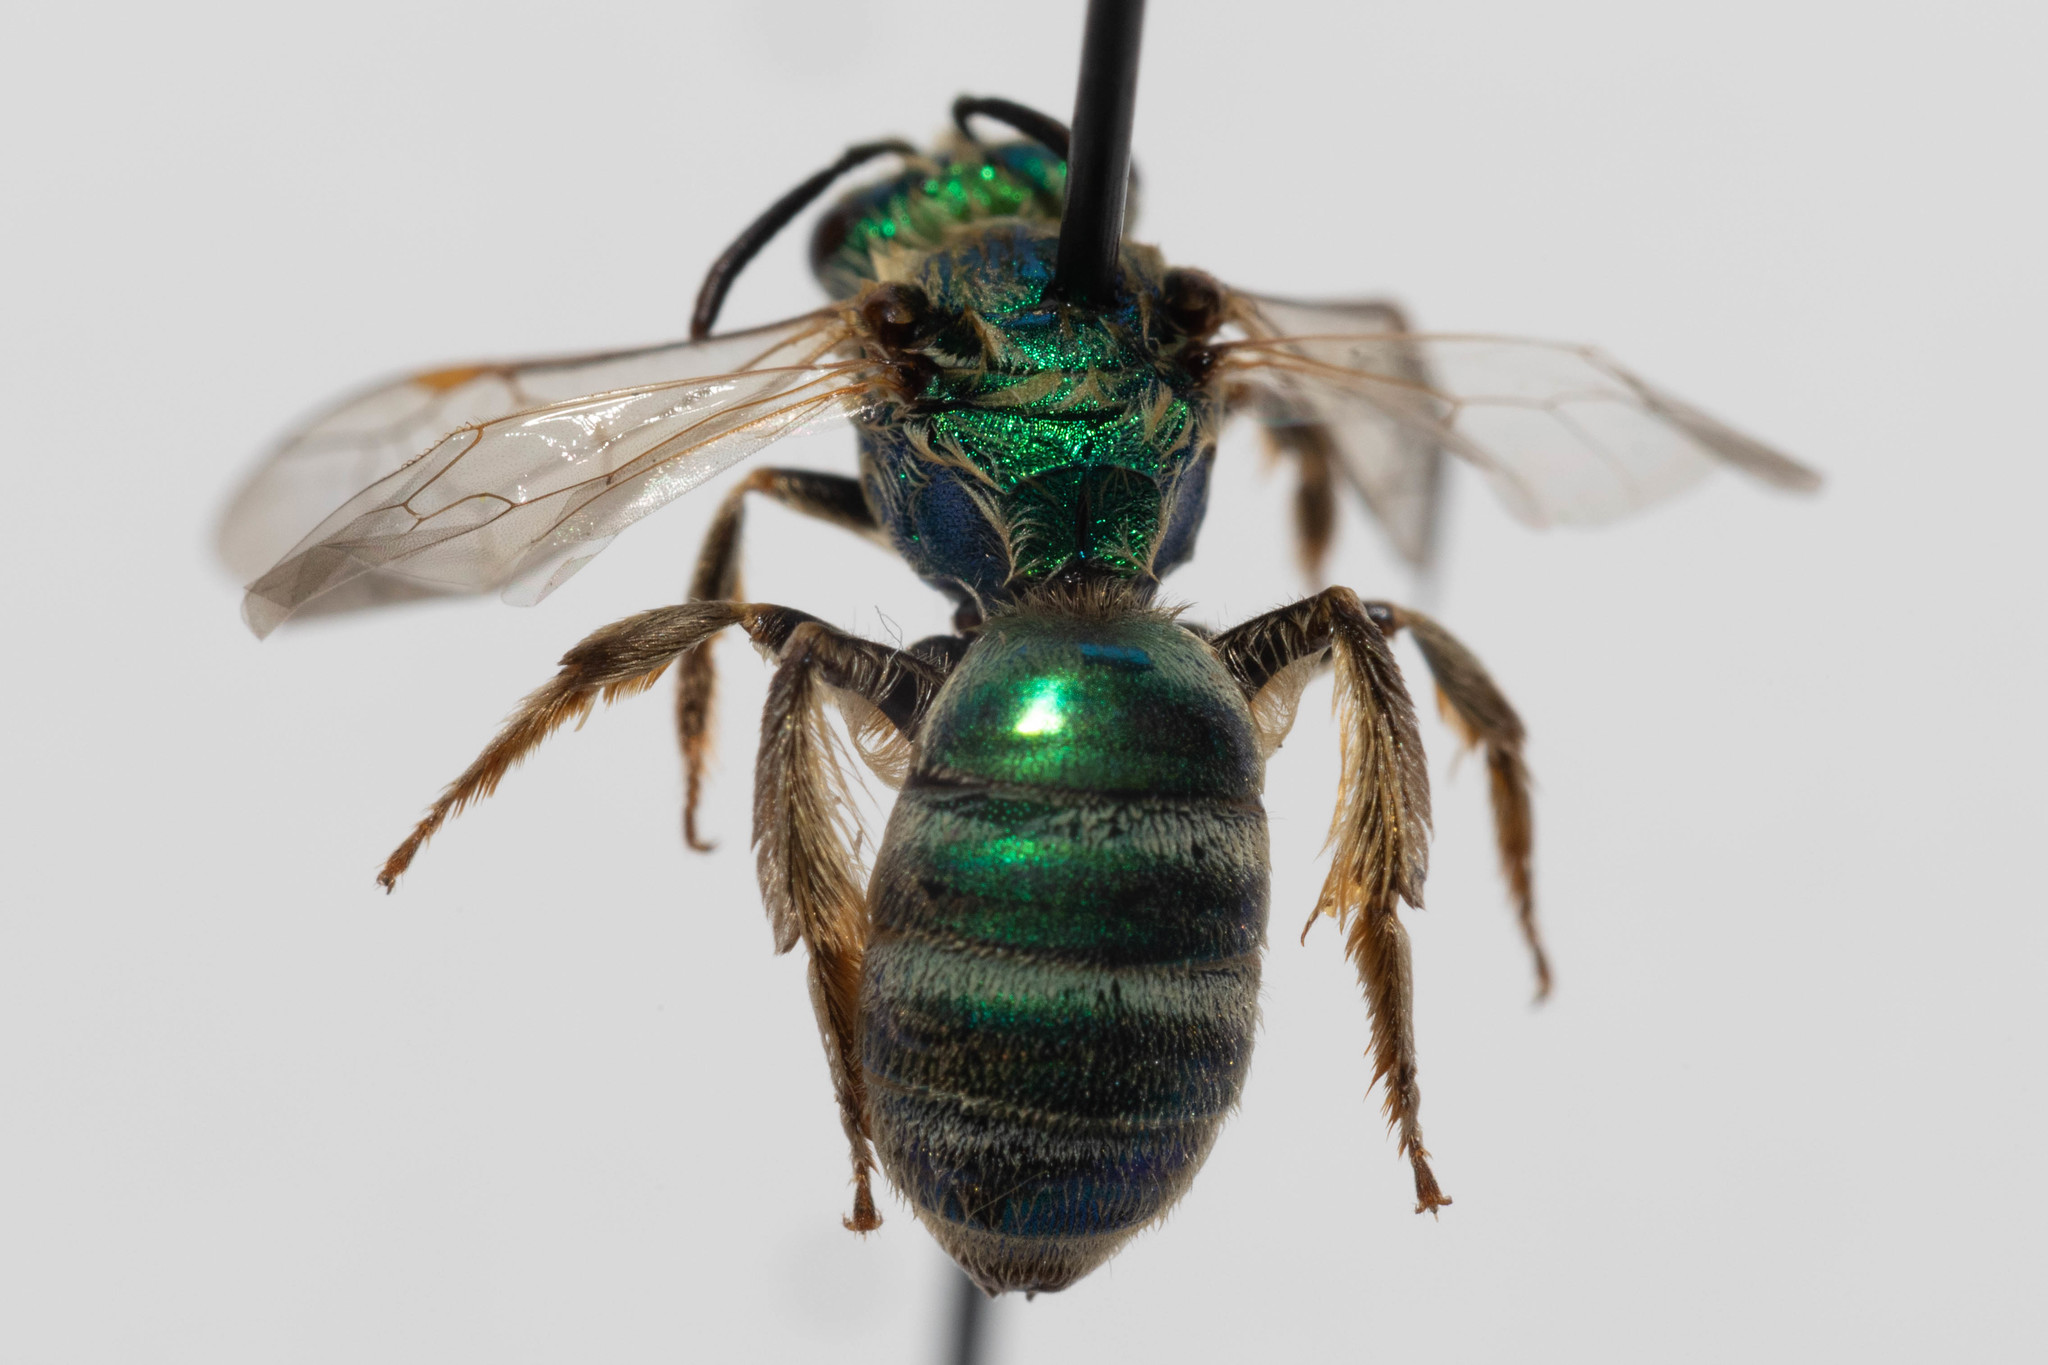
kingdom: Animalia
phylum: Arthropoda
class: Insecta
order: Hymenoptera
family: Halictidae
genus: Agapostemon
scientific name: Agapostemon texanus
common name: Texas striped sweat bee
